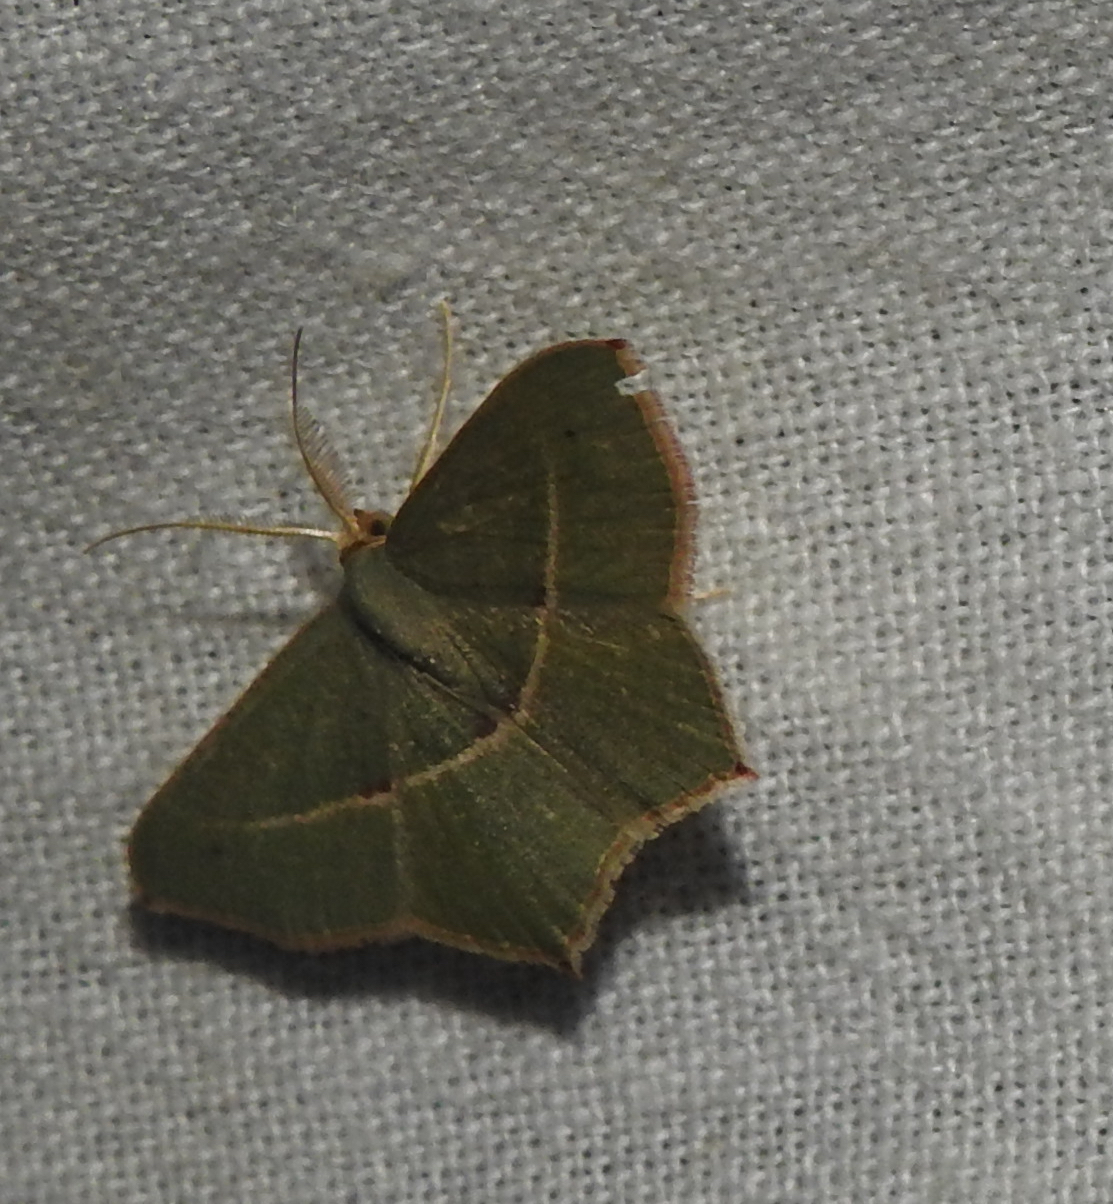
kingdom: Animalia
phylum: Arthropoda
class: Insecta
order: Lepidoptera
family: Geometridae
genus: Traminda
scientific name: Traminda mundissima
